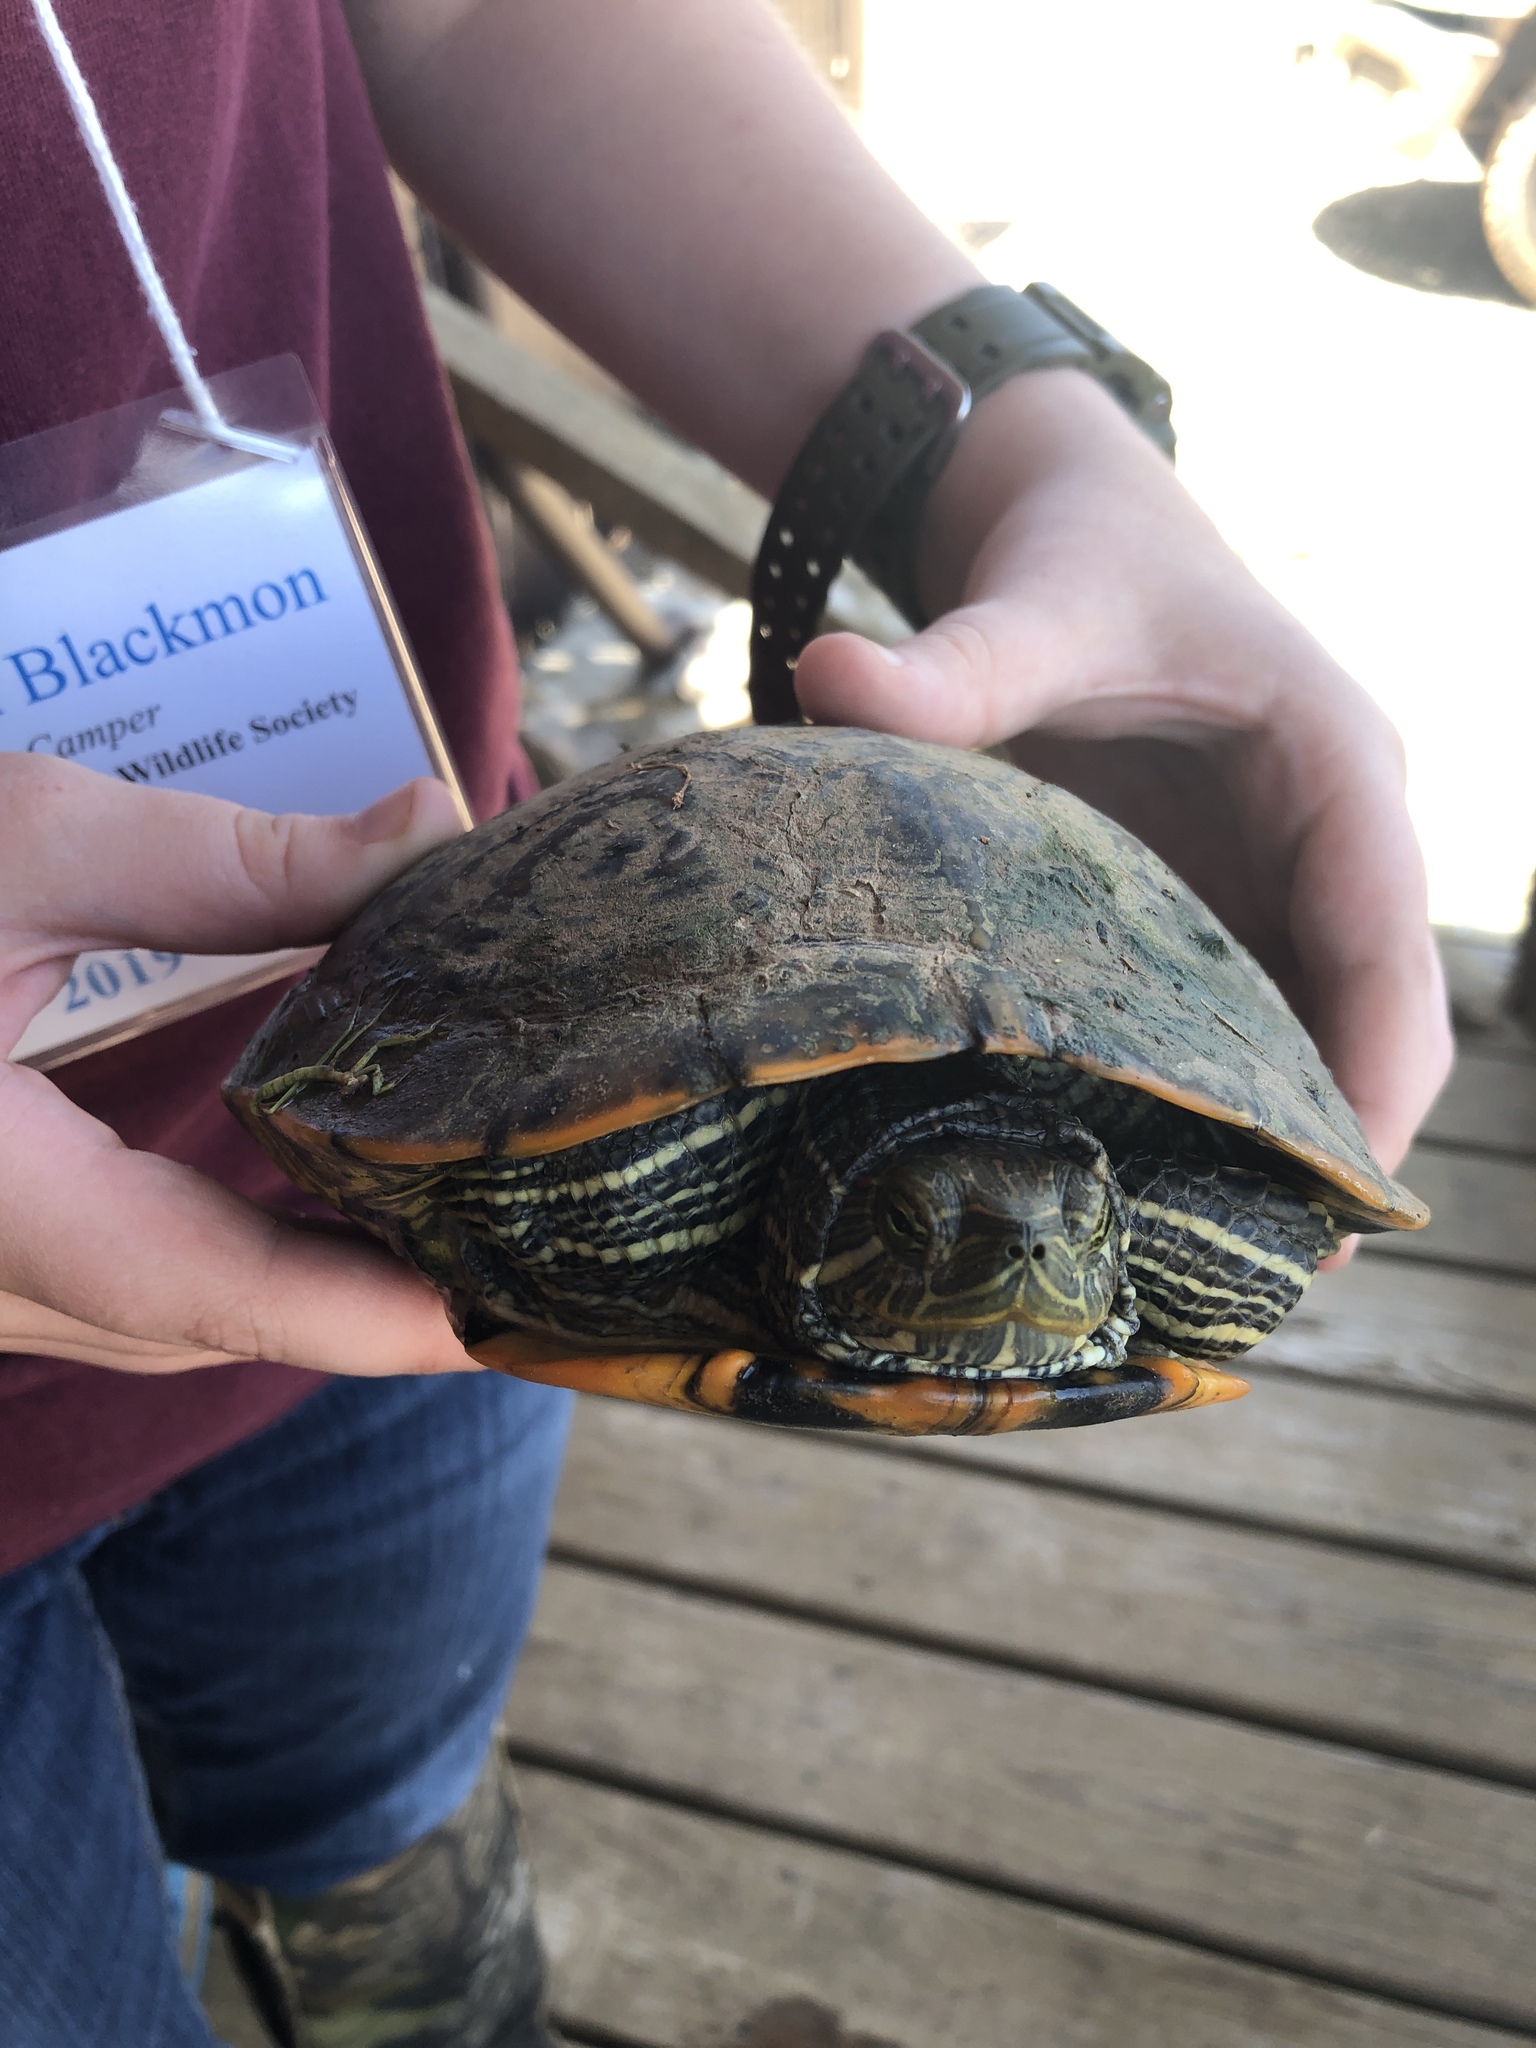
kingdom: Animalia
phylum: Chordata
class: Testudines
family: Emydidae
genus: Trachemys
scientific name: Trachemys scripta
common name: Slider
